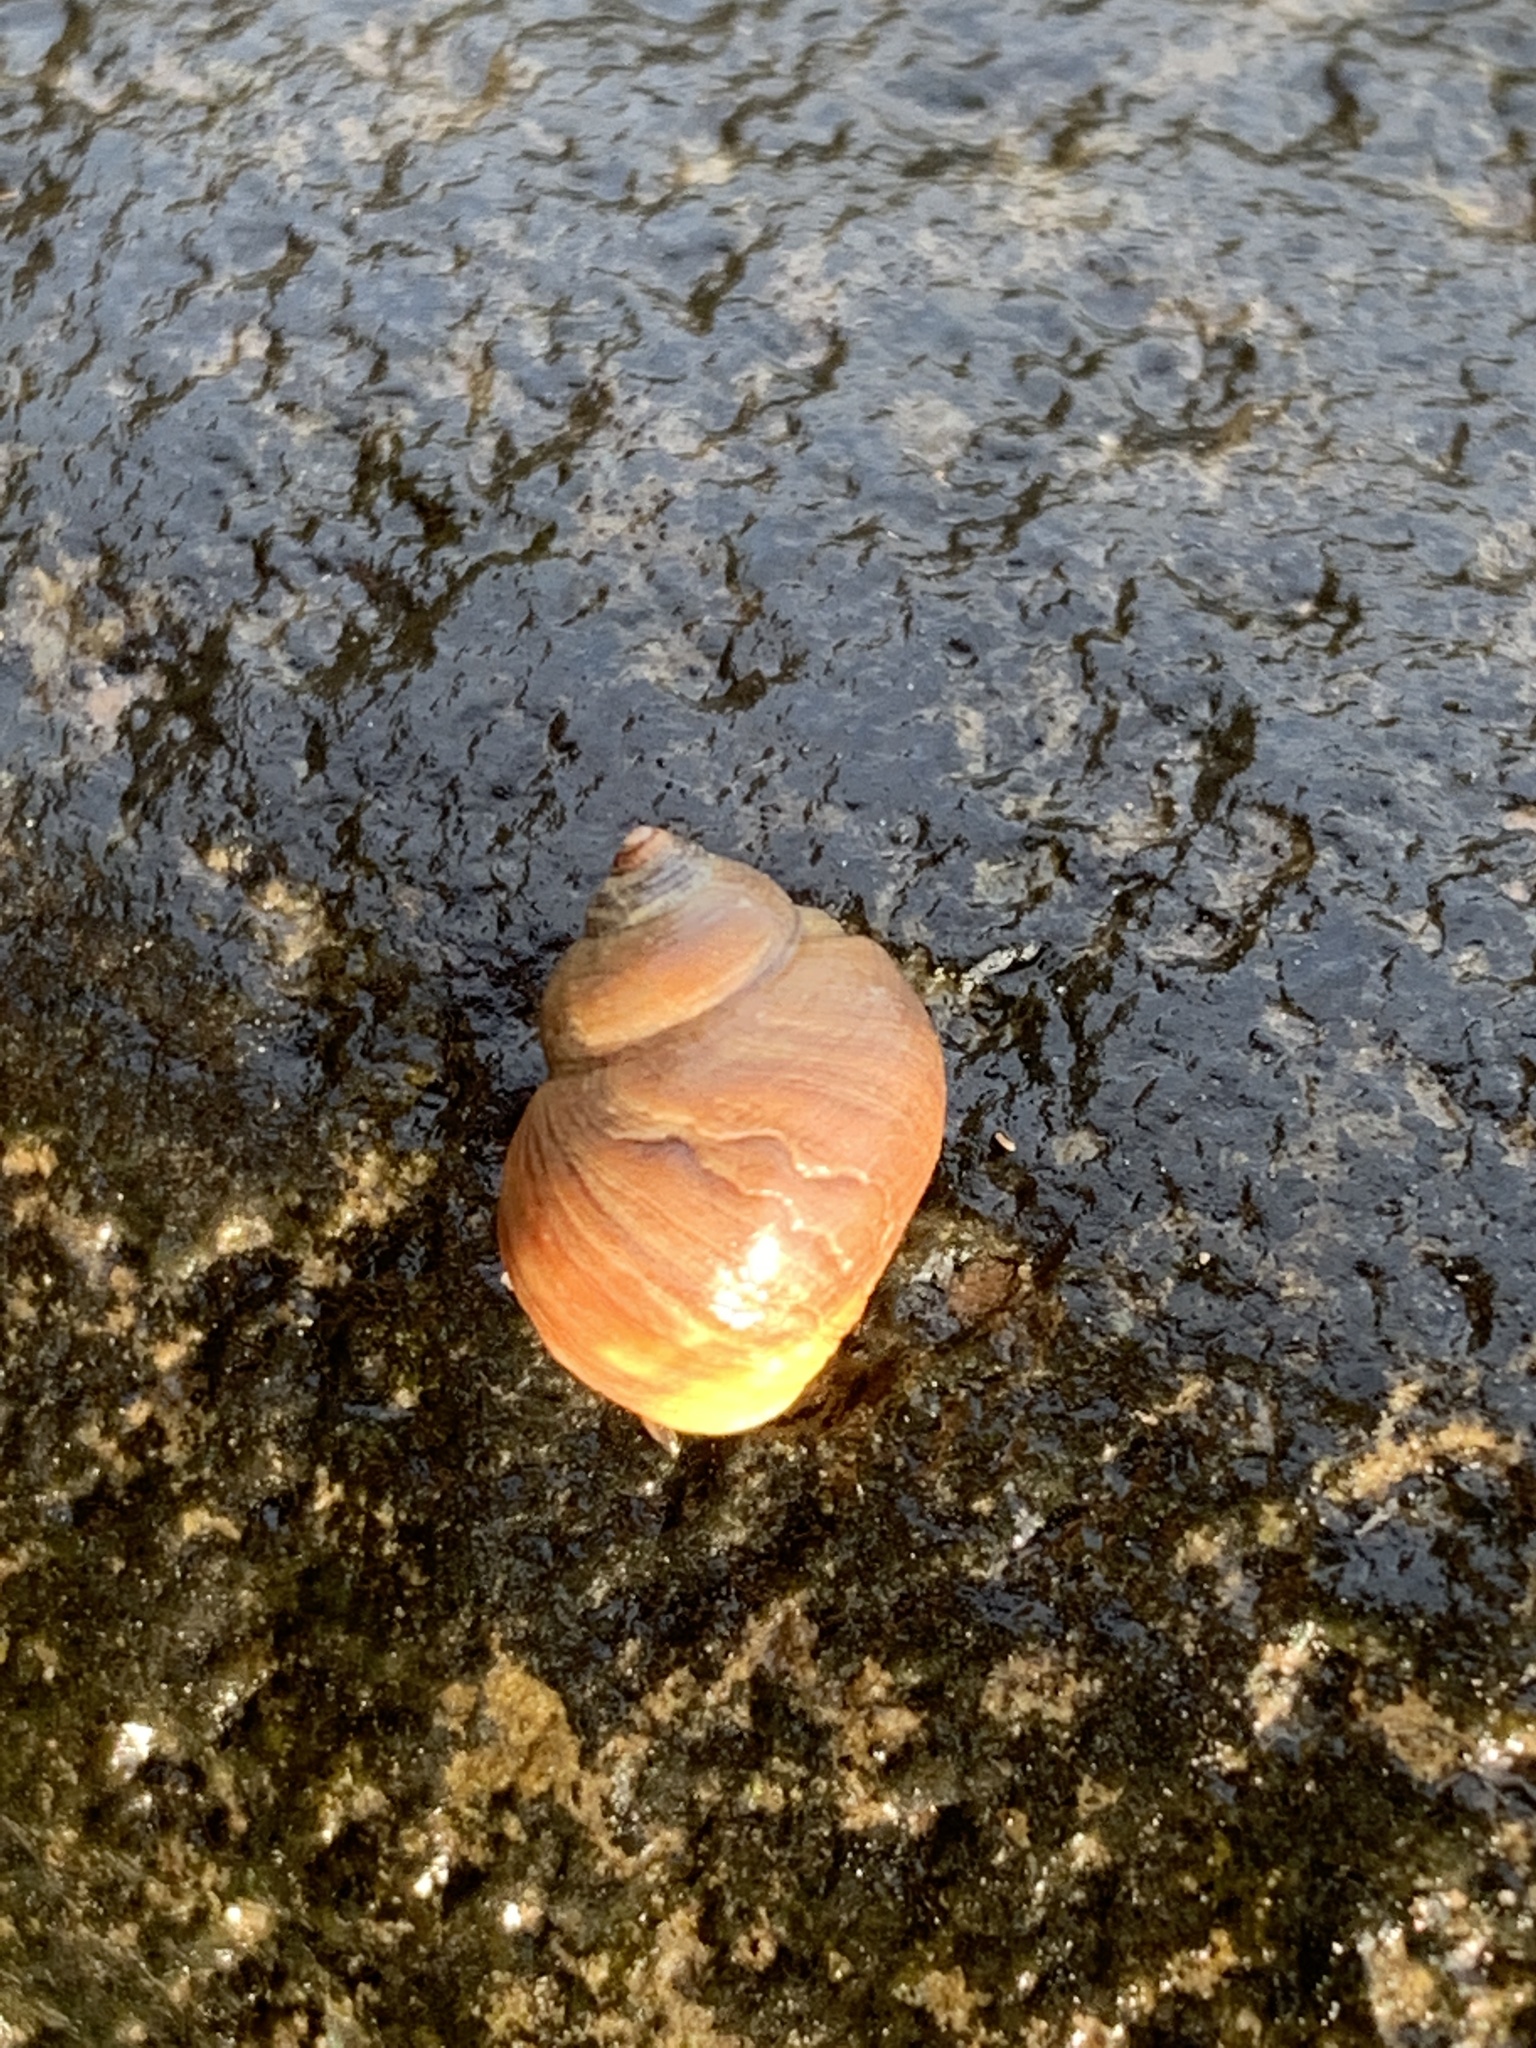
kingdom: Animalia
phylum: Mollusca
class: Gastropoda
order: Littorinimorpha
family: Littorinidae
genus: Littorina
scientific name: Littorina saxatilis
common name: Black-lined periwinkle
